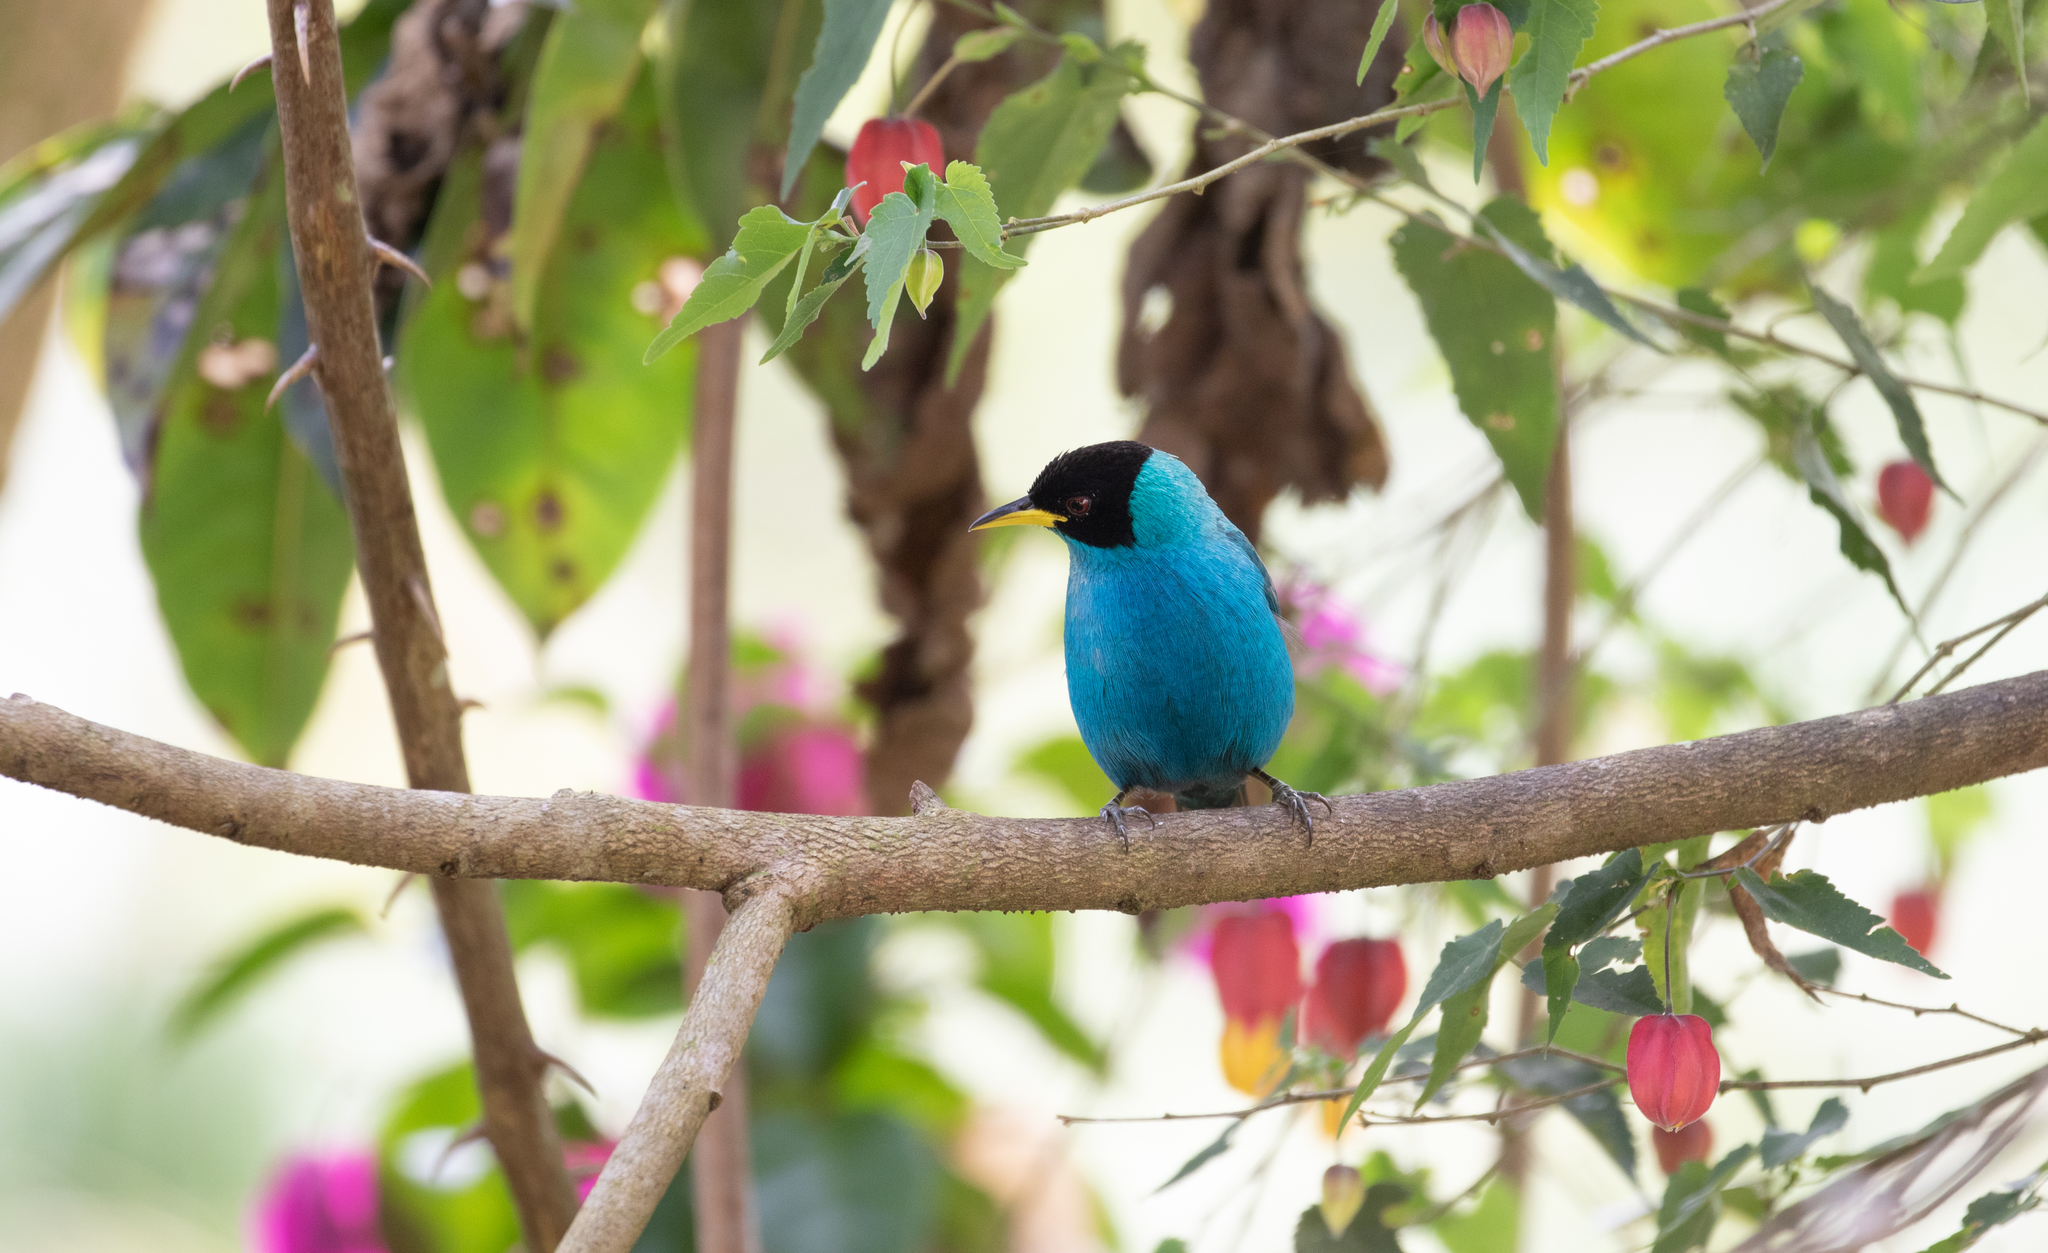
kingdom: Animalia
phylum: Chordata
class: Aves
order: Passeriformes
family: Thraupidae
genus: Chlorophanes
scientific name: Chlorophanes spiza
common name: Green honeycreeper
